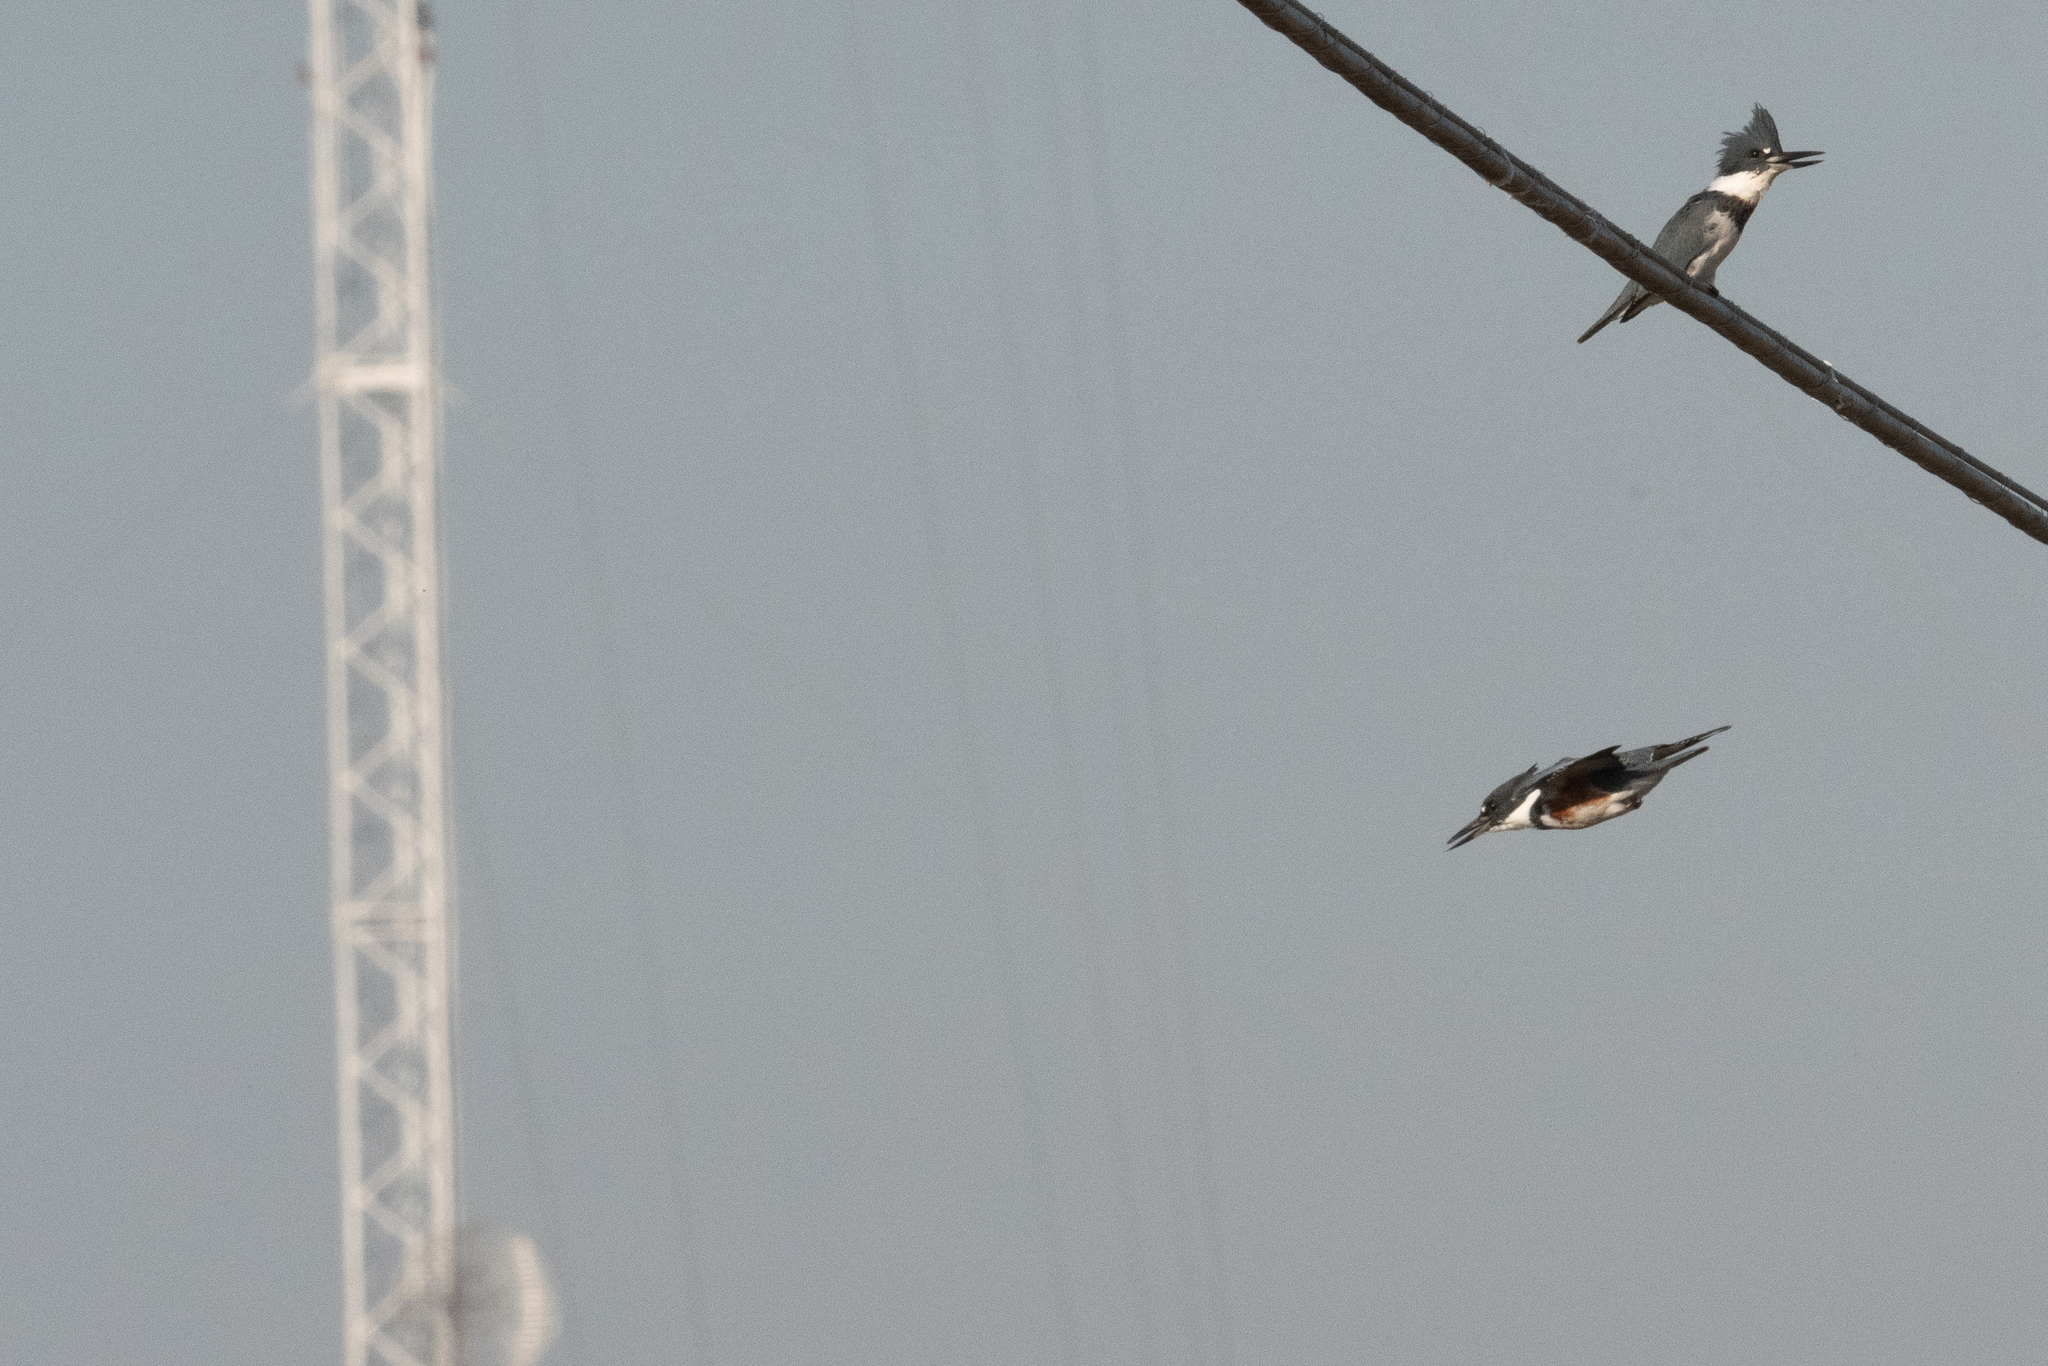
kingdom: Animalia
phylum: Chordata
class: Aves
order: Coraciiformes
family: Alcedinidae
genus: Megaceryle
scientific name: Megaceryle alcyon
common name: Belted kingfisher
